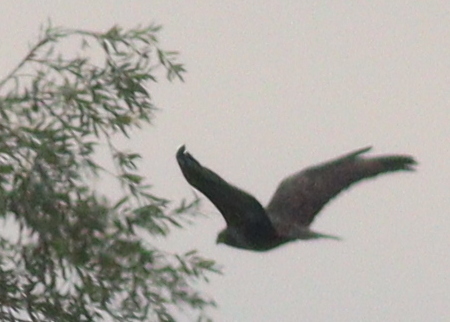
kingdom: Animalia
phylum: Chordata
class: Aves
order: Accipitriformes
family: Accipitridae
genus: Buteo
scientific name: Buteo buteo
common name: Common buzzard
